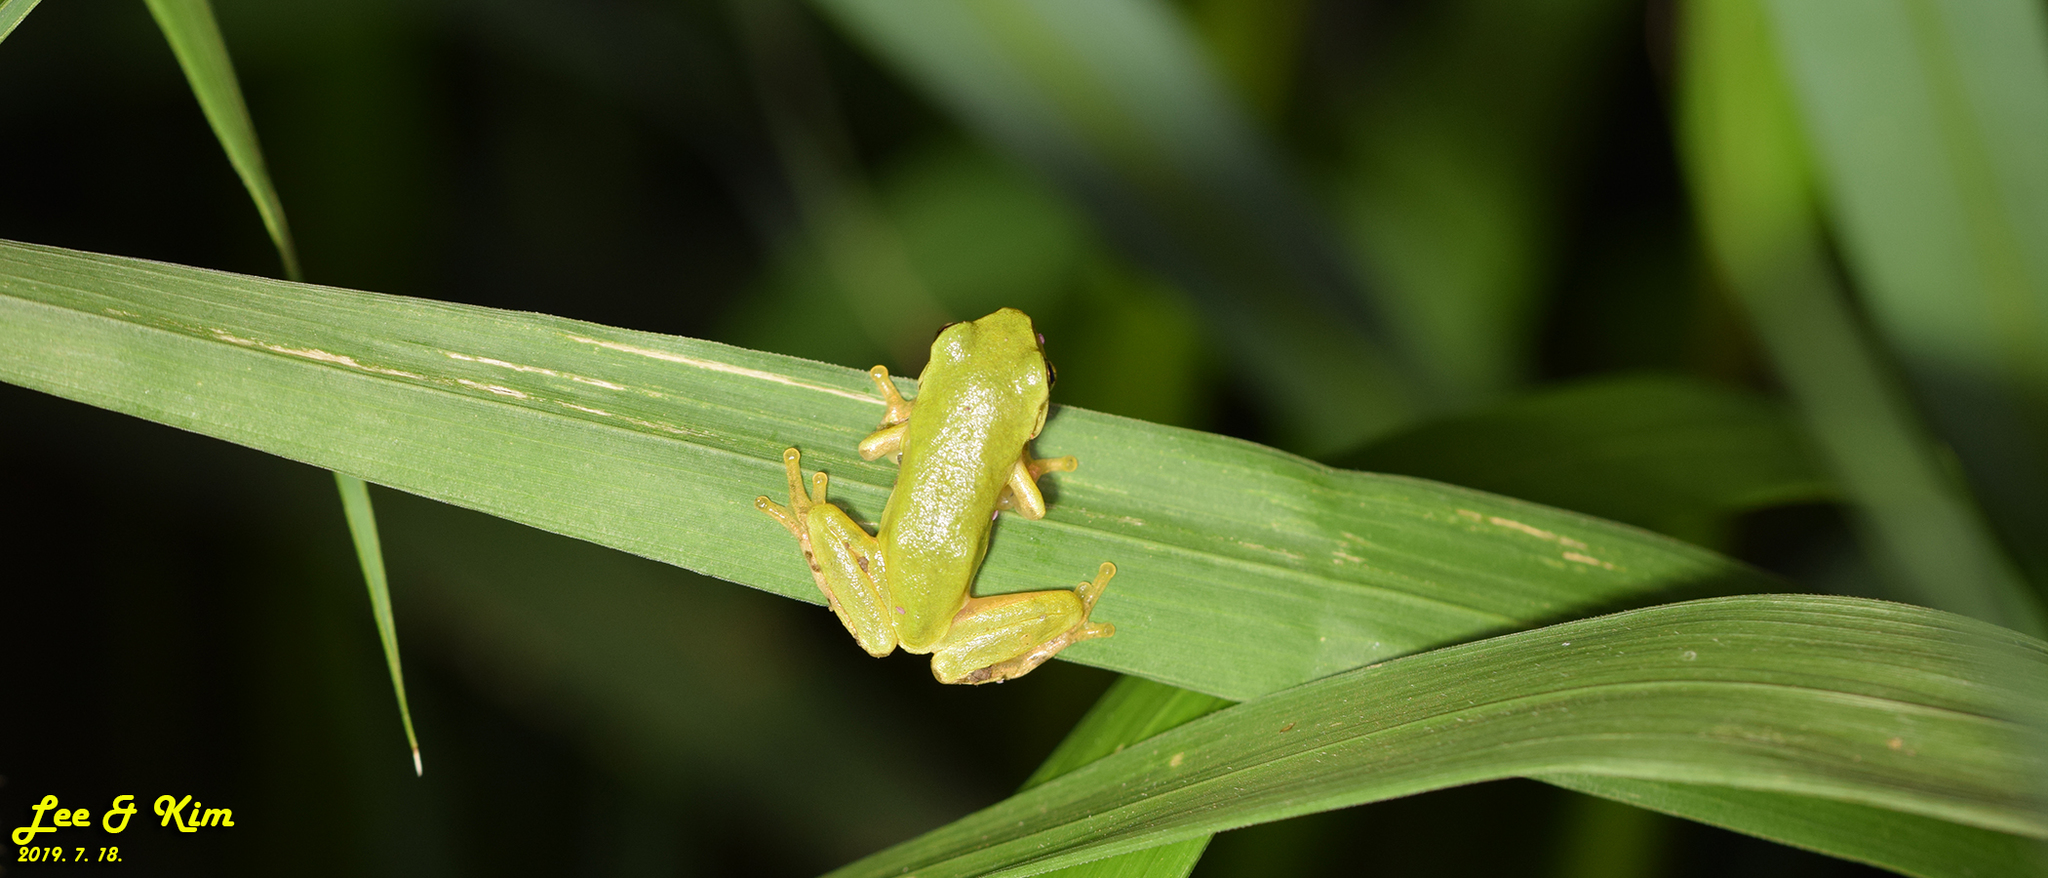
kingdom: Animalia
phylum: Chordata
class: Amphibia
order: Anura
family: Hylidae
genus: Dryophytes
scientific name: Dryophytes japonicus
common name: Japanese treefrog
